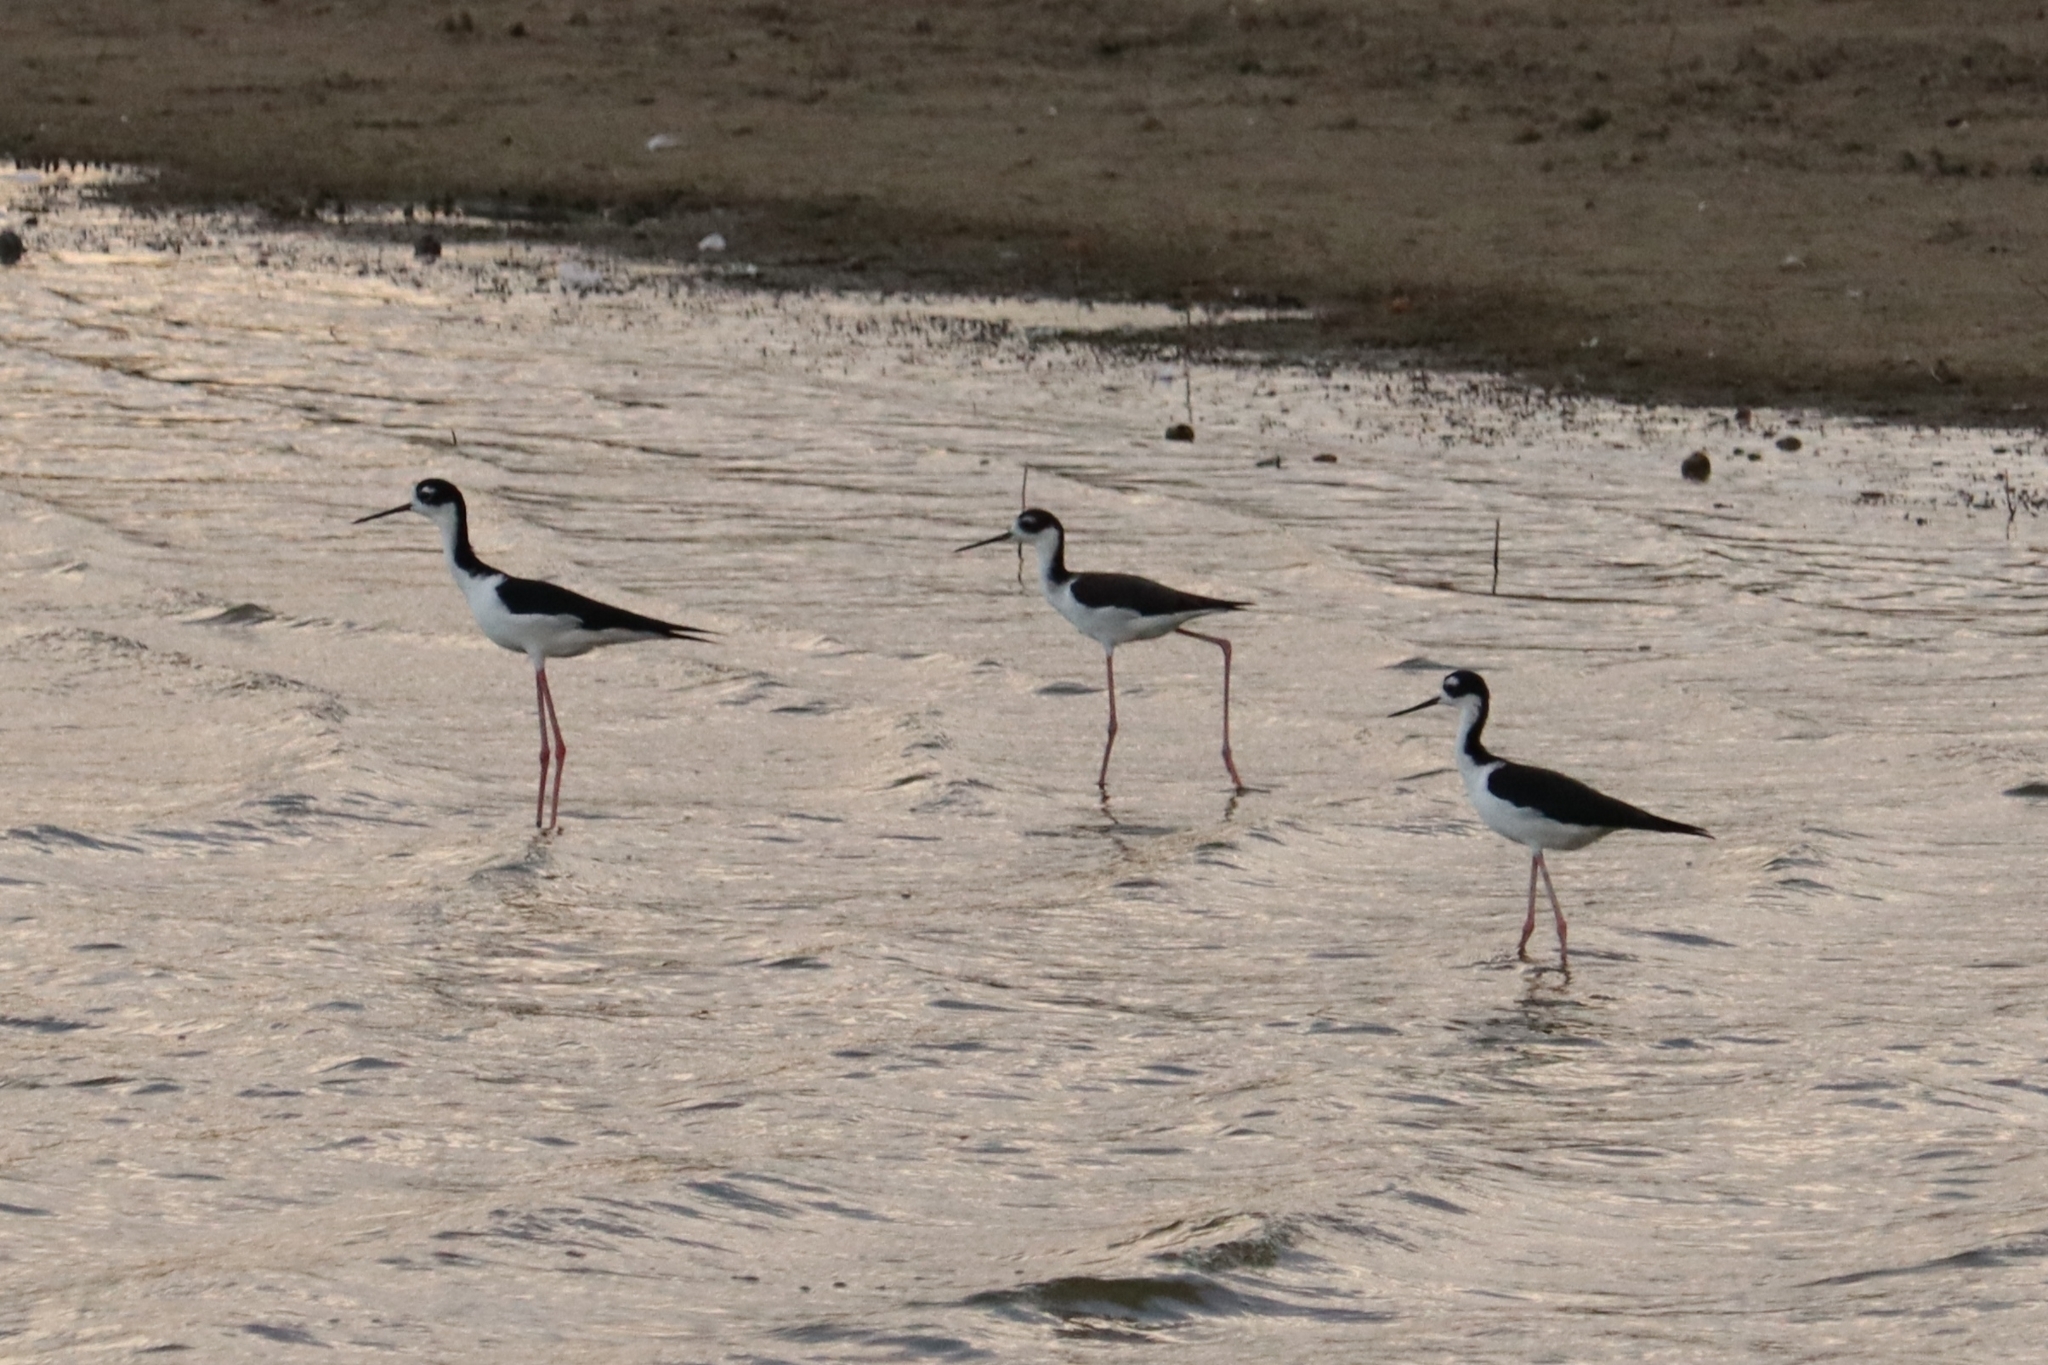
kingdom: Animalia
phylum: Chordata
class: Aves
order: Charadriiformes
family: Recurvirostridae
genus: Himantopus
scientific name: Himantopus mexicanus
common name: Black-necked stilt
